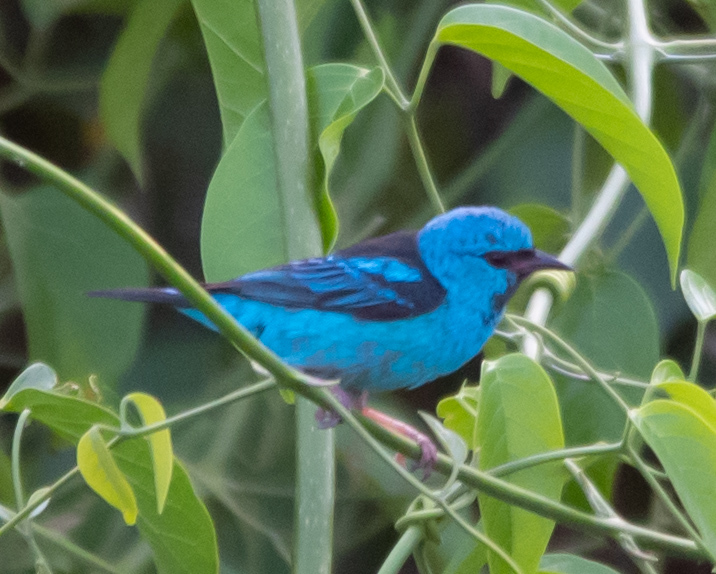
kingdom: Animalia
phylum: Chordata
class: Aves
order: Passeriformes
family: Thraupidae
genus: Dacnis
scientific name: Dacnis cayana
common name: Blue dacnis
